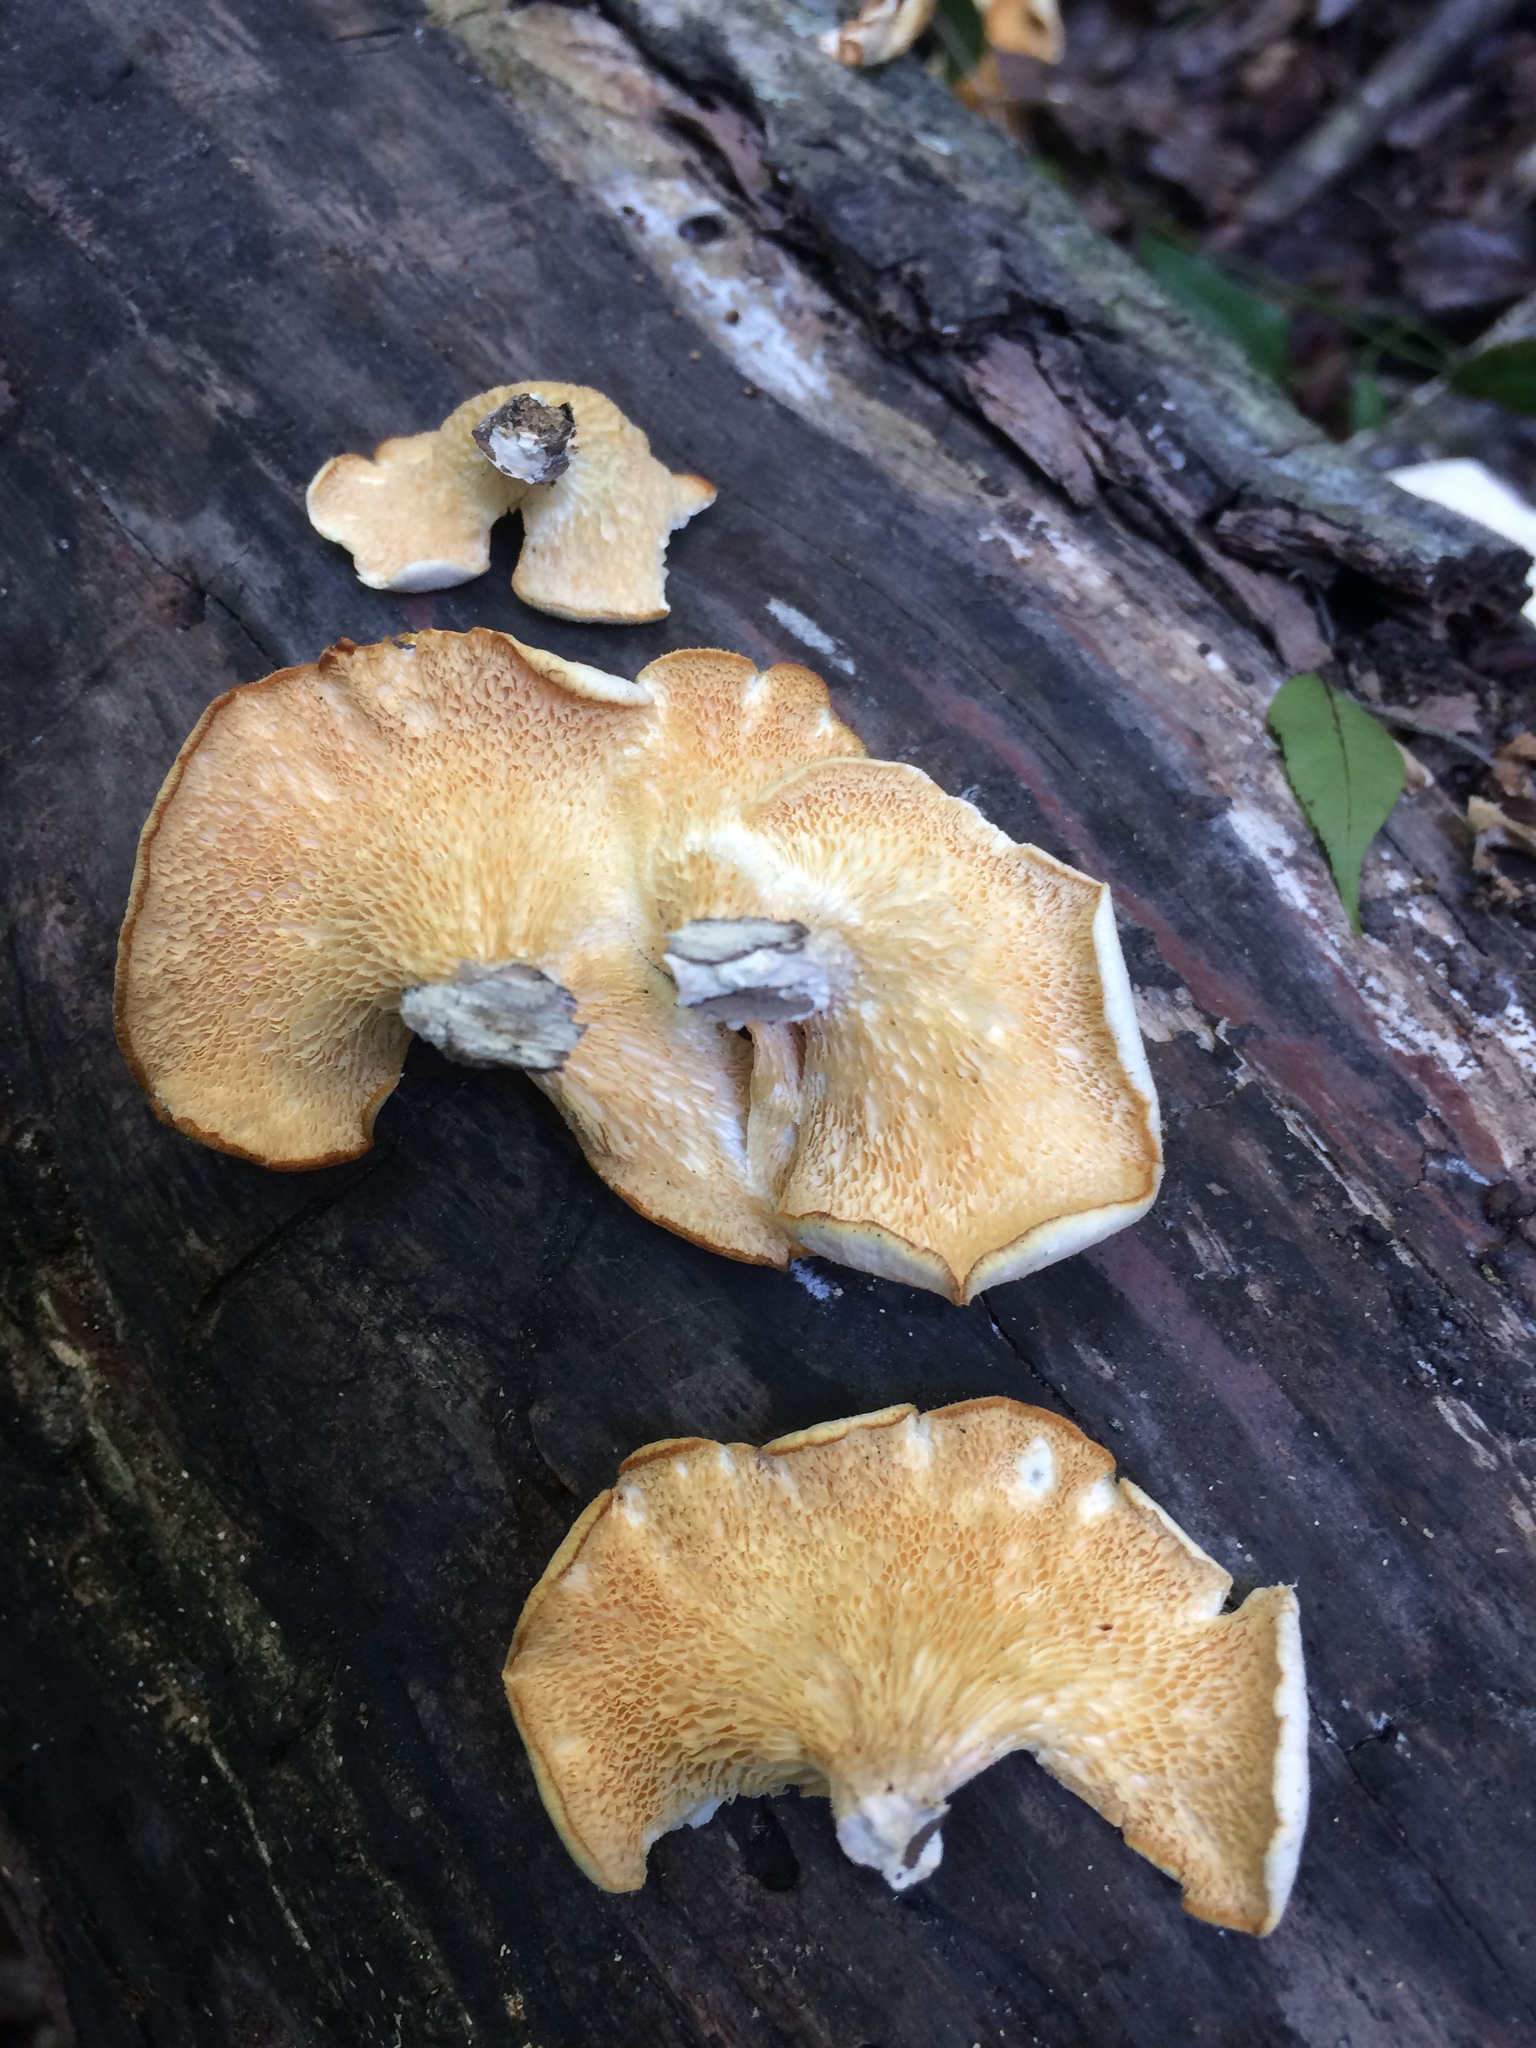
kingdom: Fungi
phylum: Basidiomycota
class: Agaricomycetes
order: Polyporales
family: Polyporaceae
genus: Favolus
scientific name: Favolus tenuiculus
